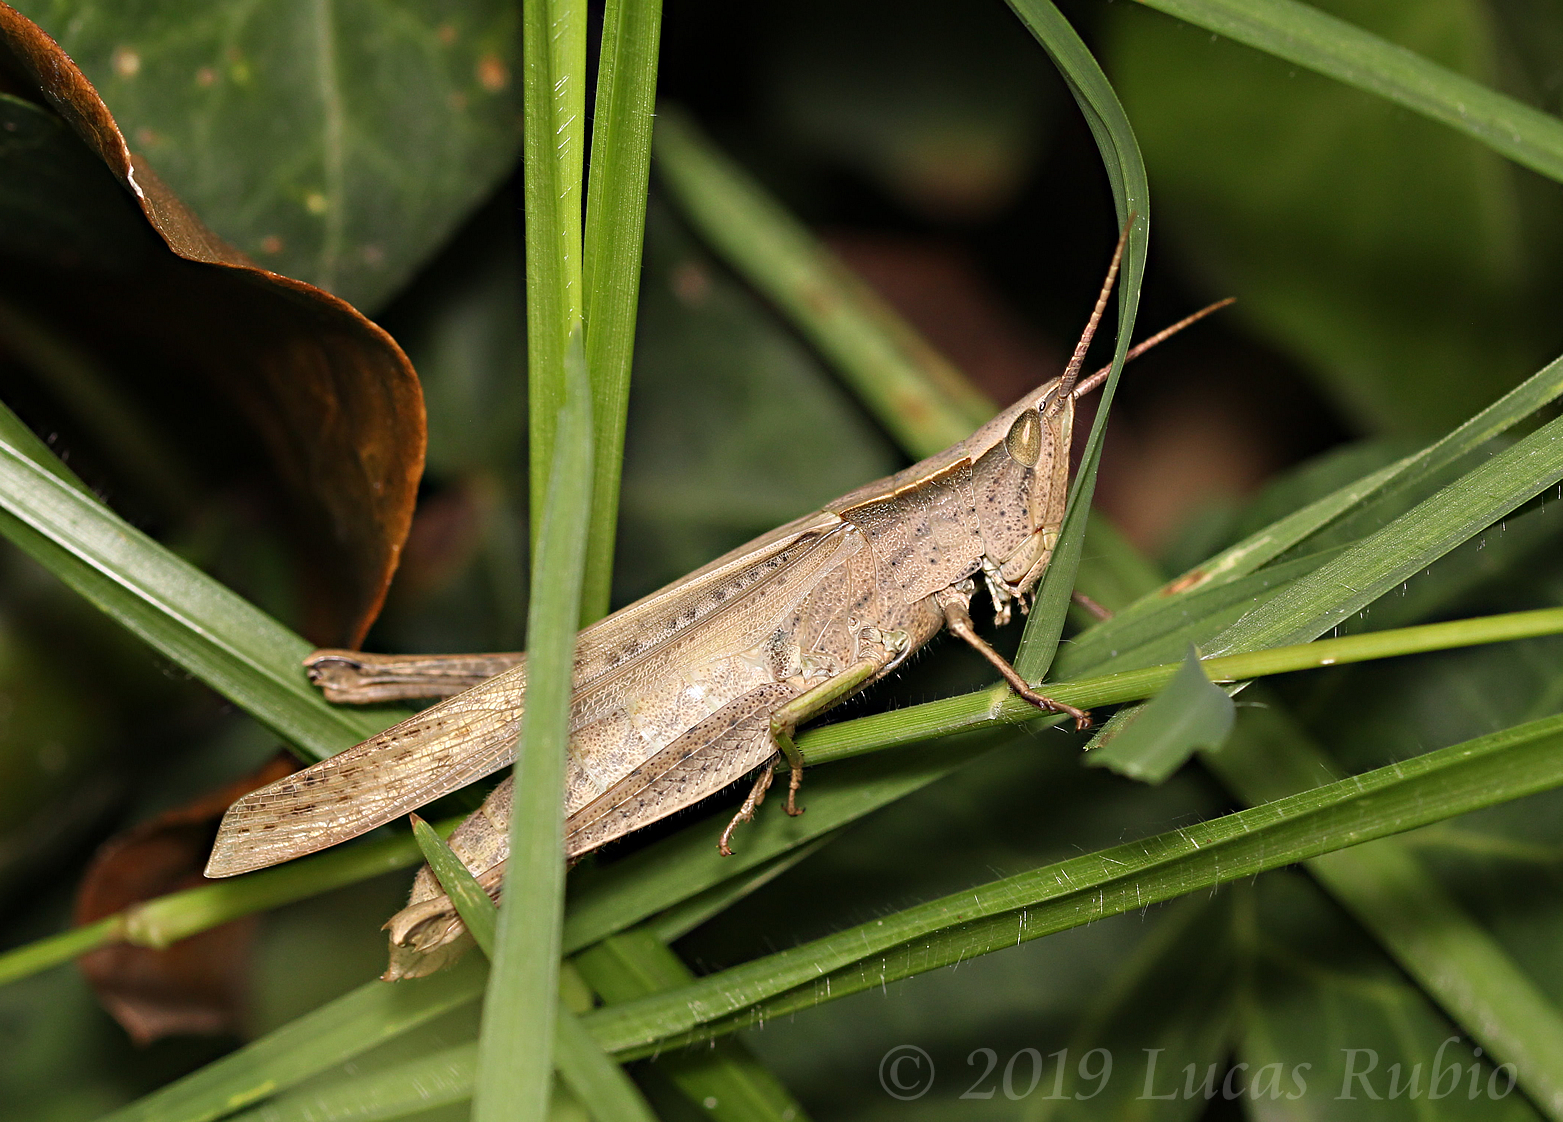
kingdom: Animalia
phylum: Arthropoda
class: Insecta
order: Orthoptera
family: Acrididae
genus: Metaleptea
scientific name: Metaleptea adspersa
